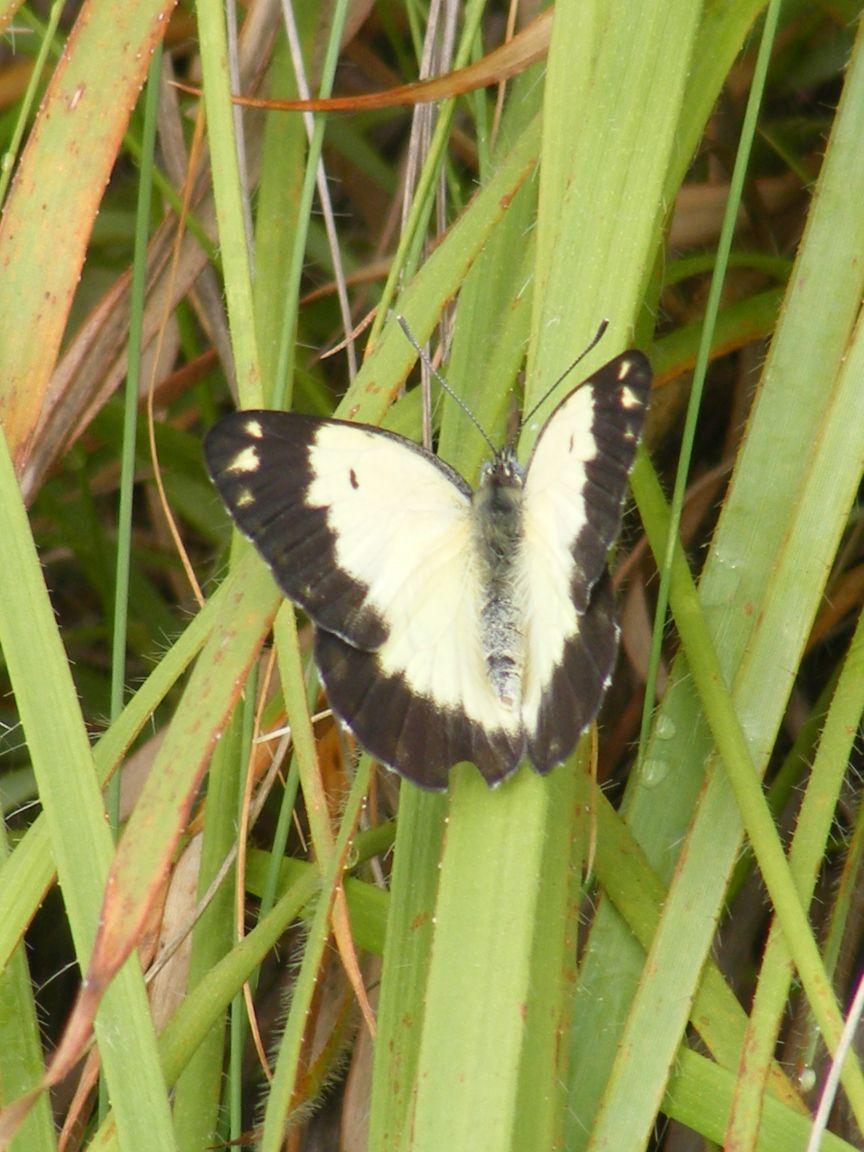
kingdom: Animalia
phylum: Arthropoda
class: Insecta
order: Lepidoptera
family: Pieridae
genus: Belenois
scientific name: Belenois creona
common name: African caper white
